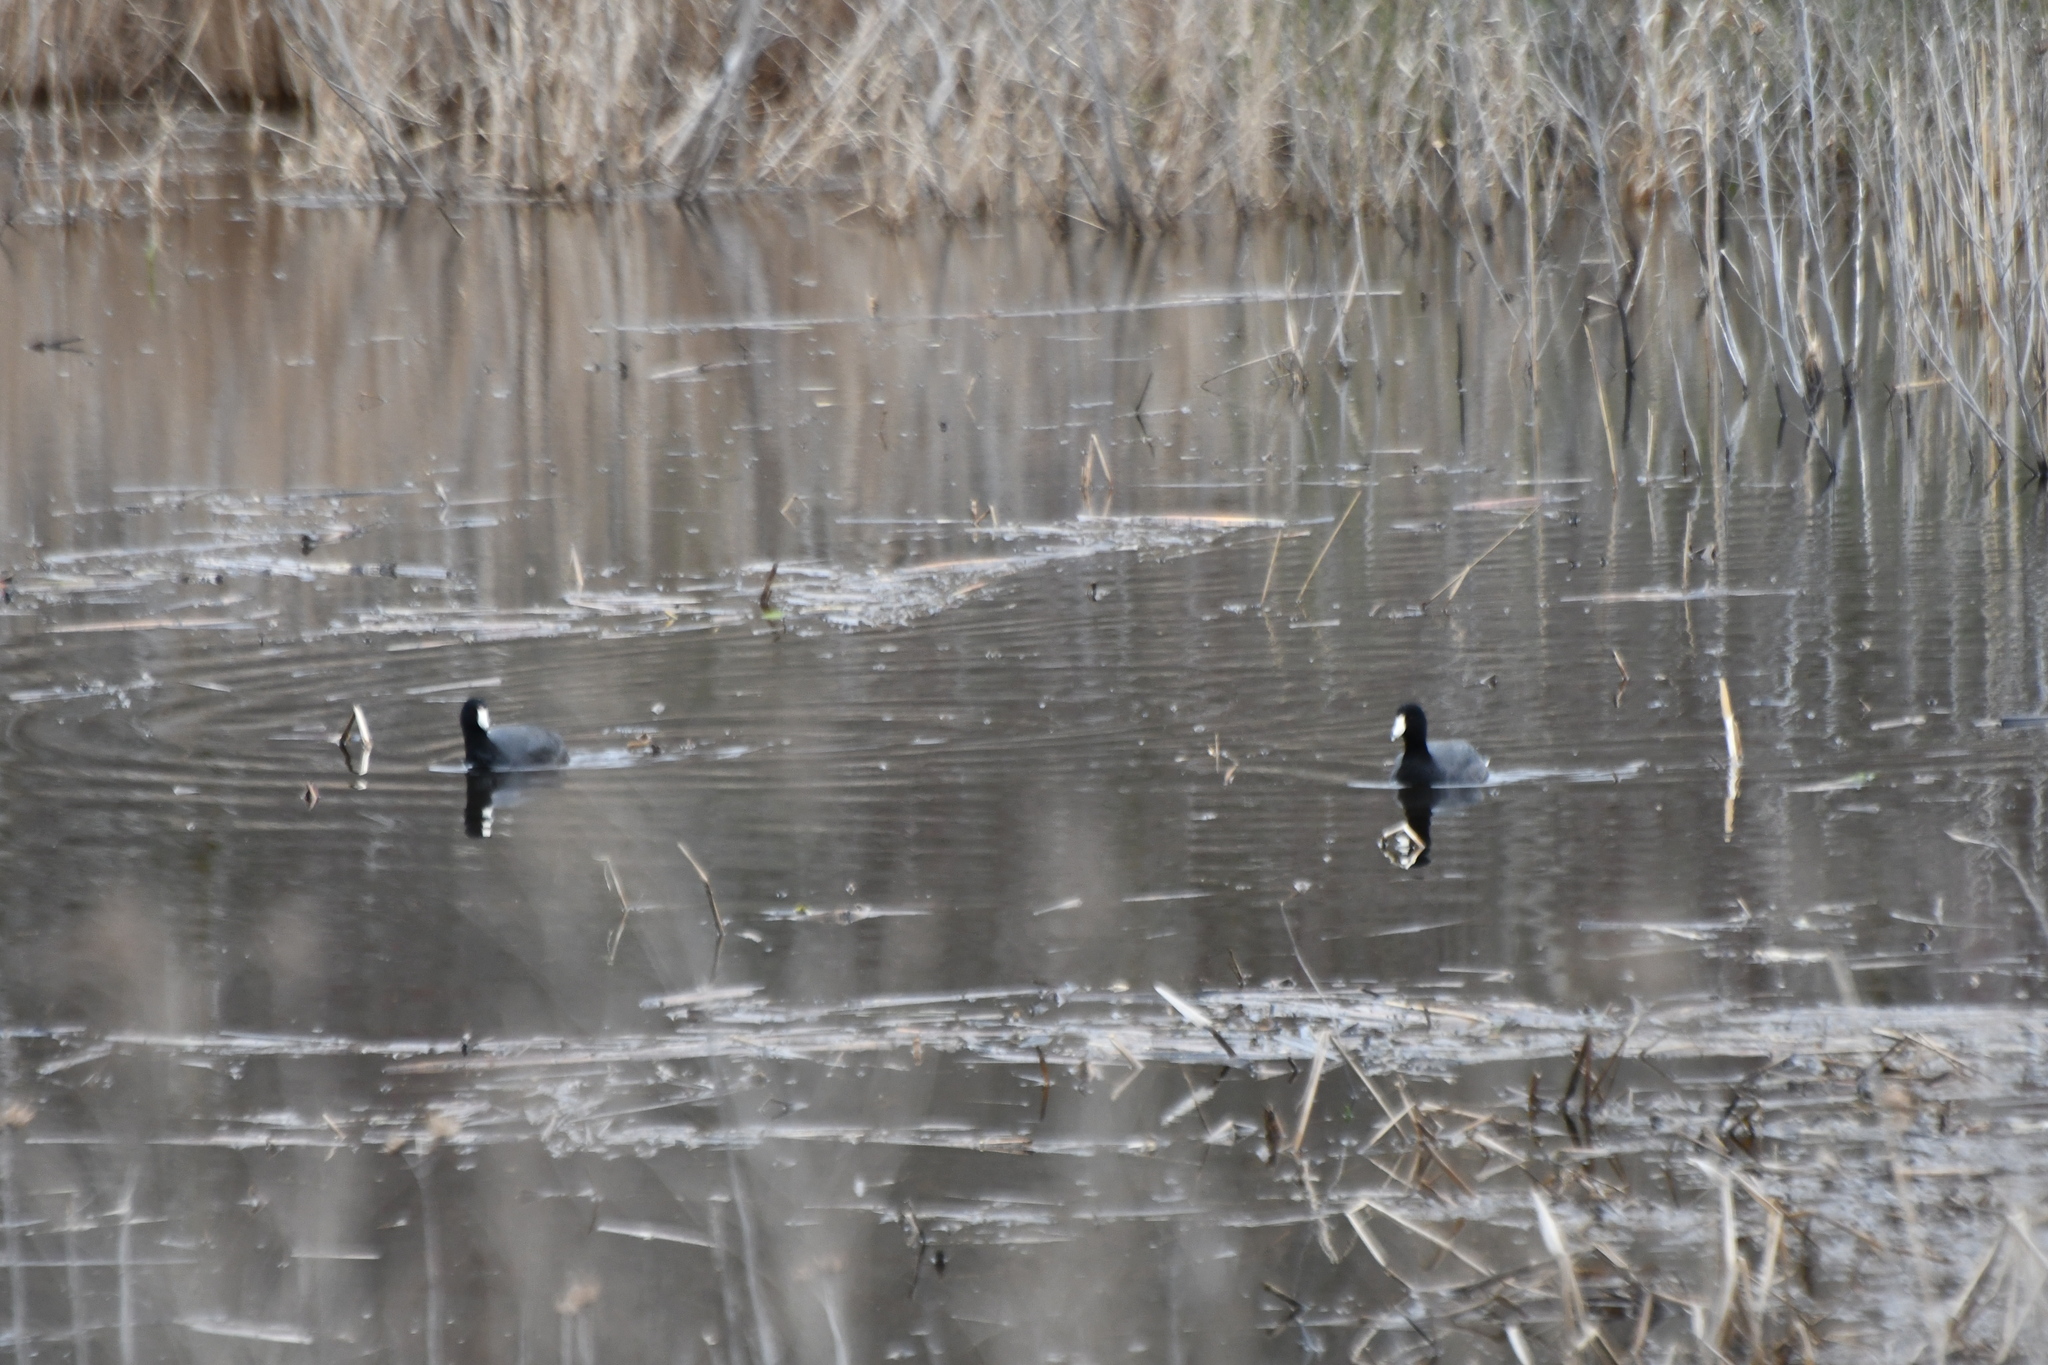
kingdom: Animalia
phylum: Chordata
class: Aves
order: Gruiformes
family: Rallidae
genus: Fulica
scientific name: Fulica americana
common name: American coot
